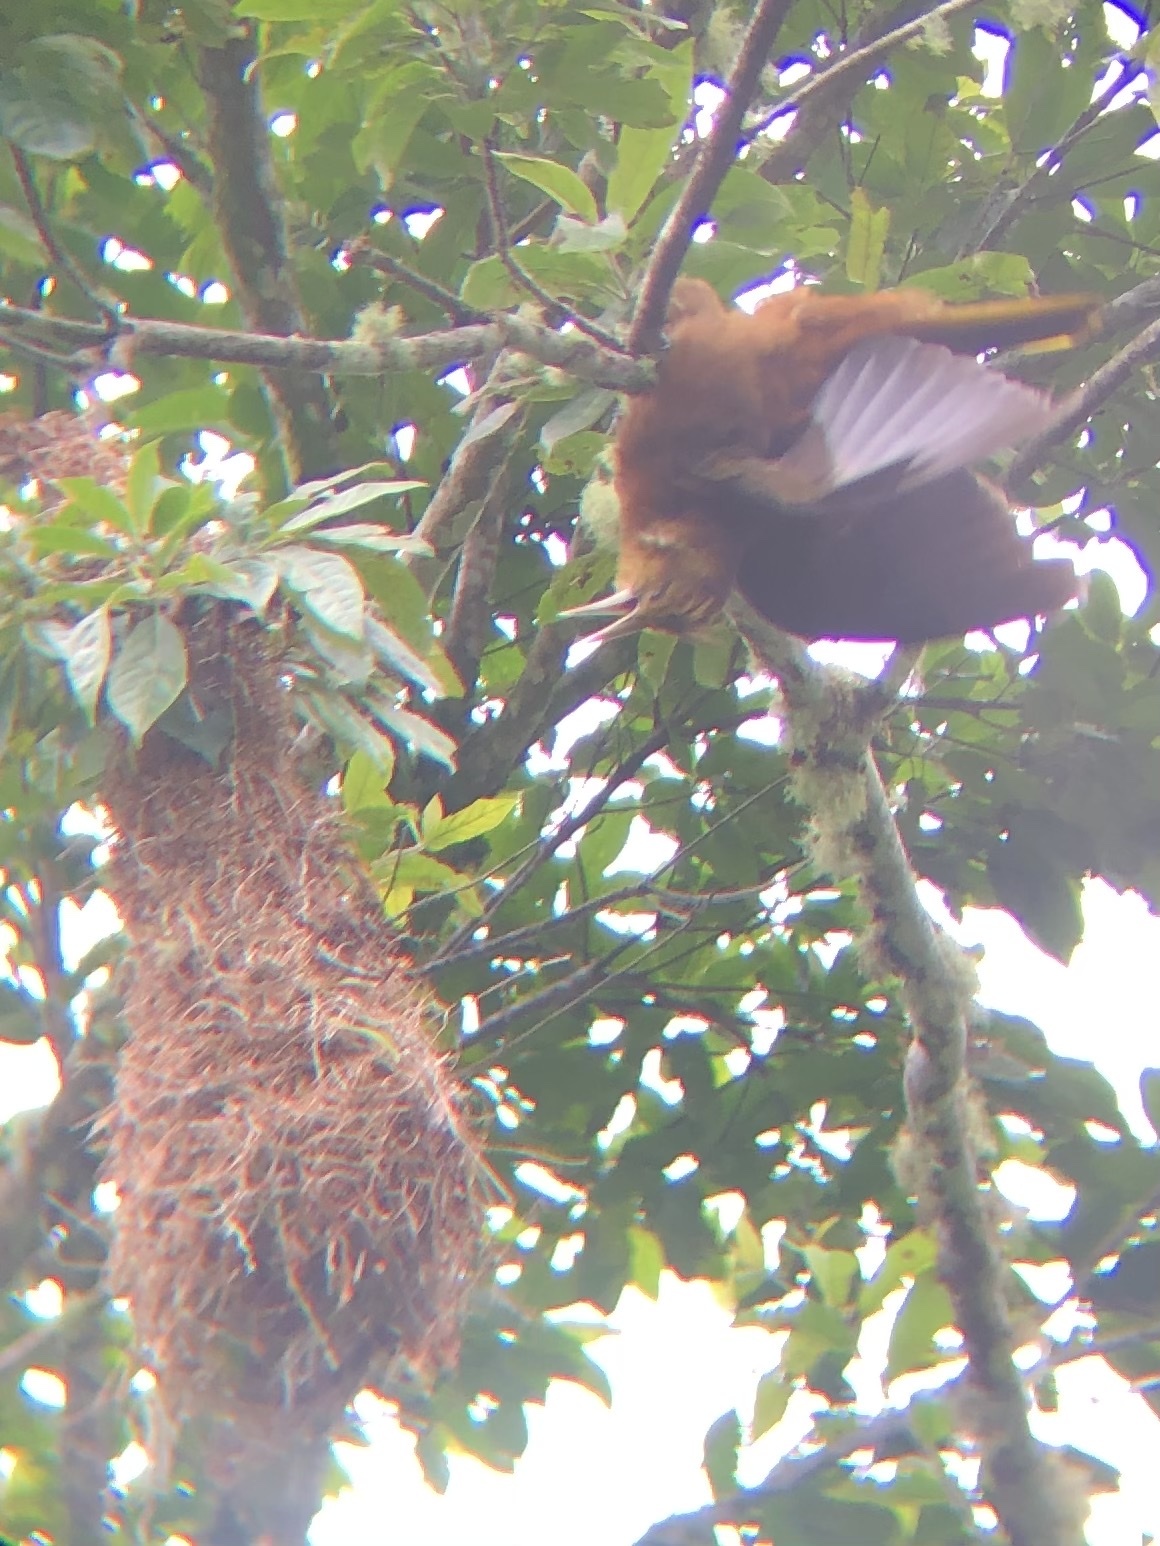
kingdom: Animalia
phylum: Chordata
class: Aves
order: Passeriformes
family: Icteridae
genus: Psarocolius
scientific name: Psarocolius angustifrons
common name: Russet-backed oropendola
